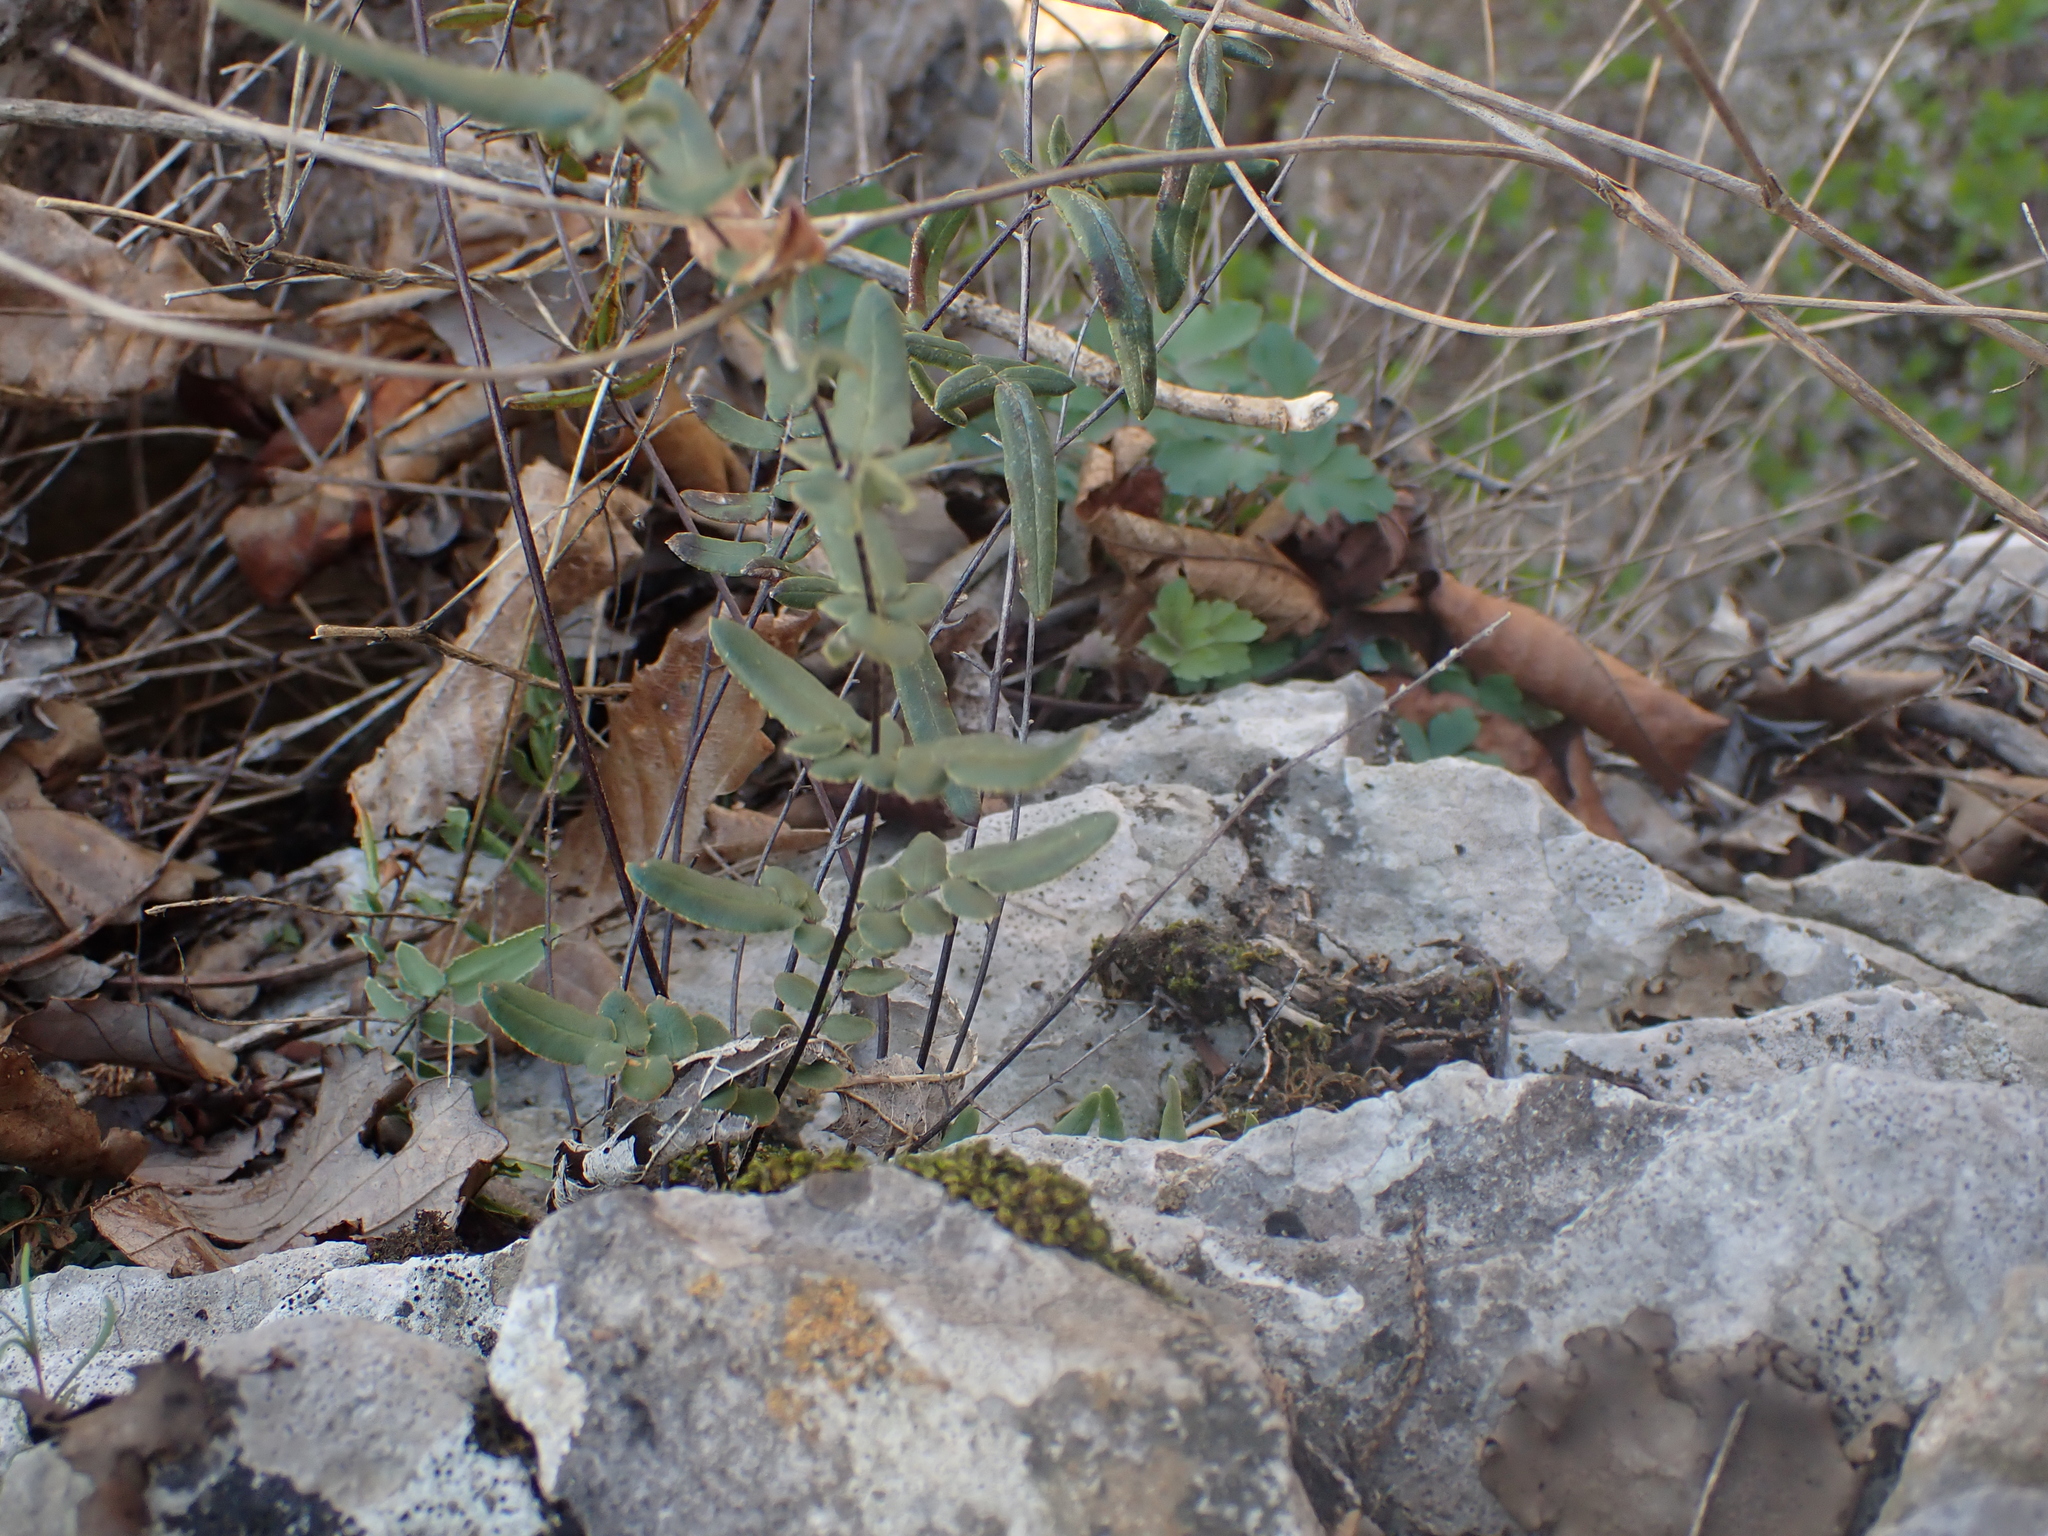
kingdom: Plantae
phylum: Tracheophyta
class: Polypodiopsida
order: Polypodiales
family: Pteridaceae
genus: Pellaea
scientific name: Pellaea glabella
